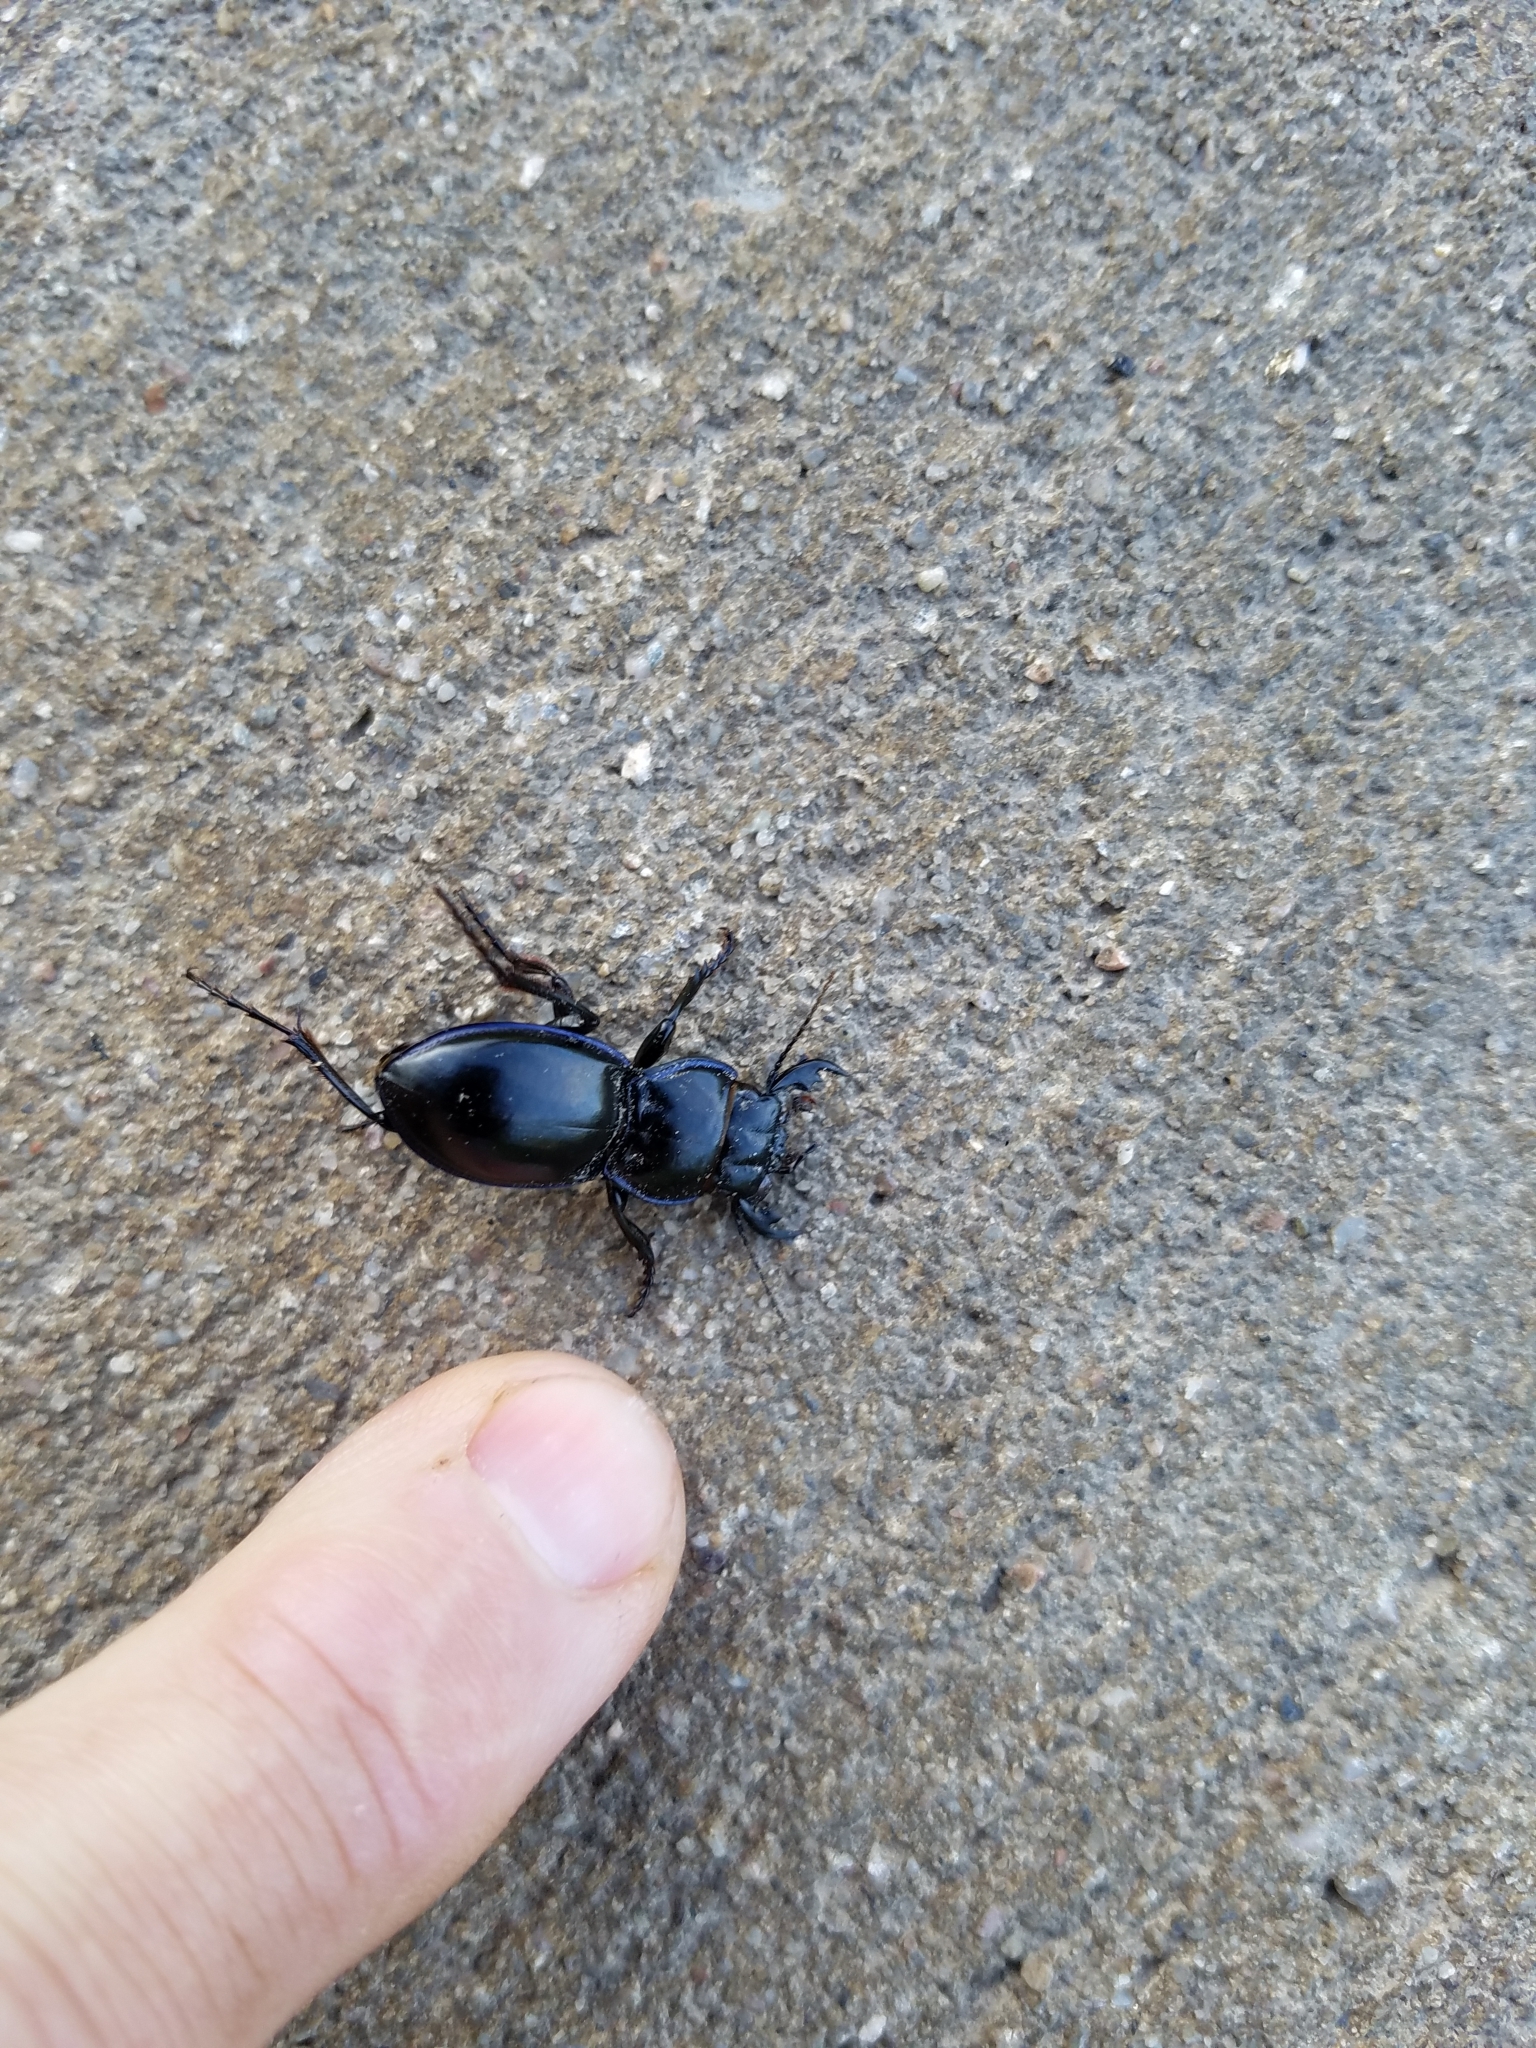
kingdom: Animalia
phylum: Arthropoda
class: Insecta
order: Coleoptera
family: Carabidae
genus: Pasimachus
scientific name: Pasimachus elongatus
